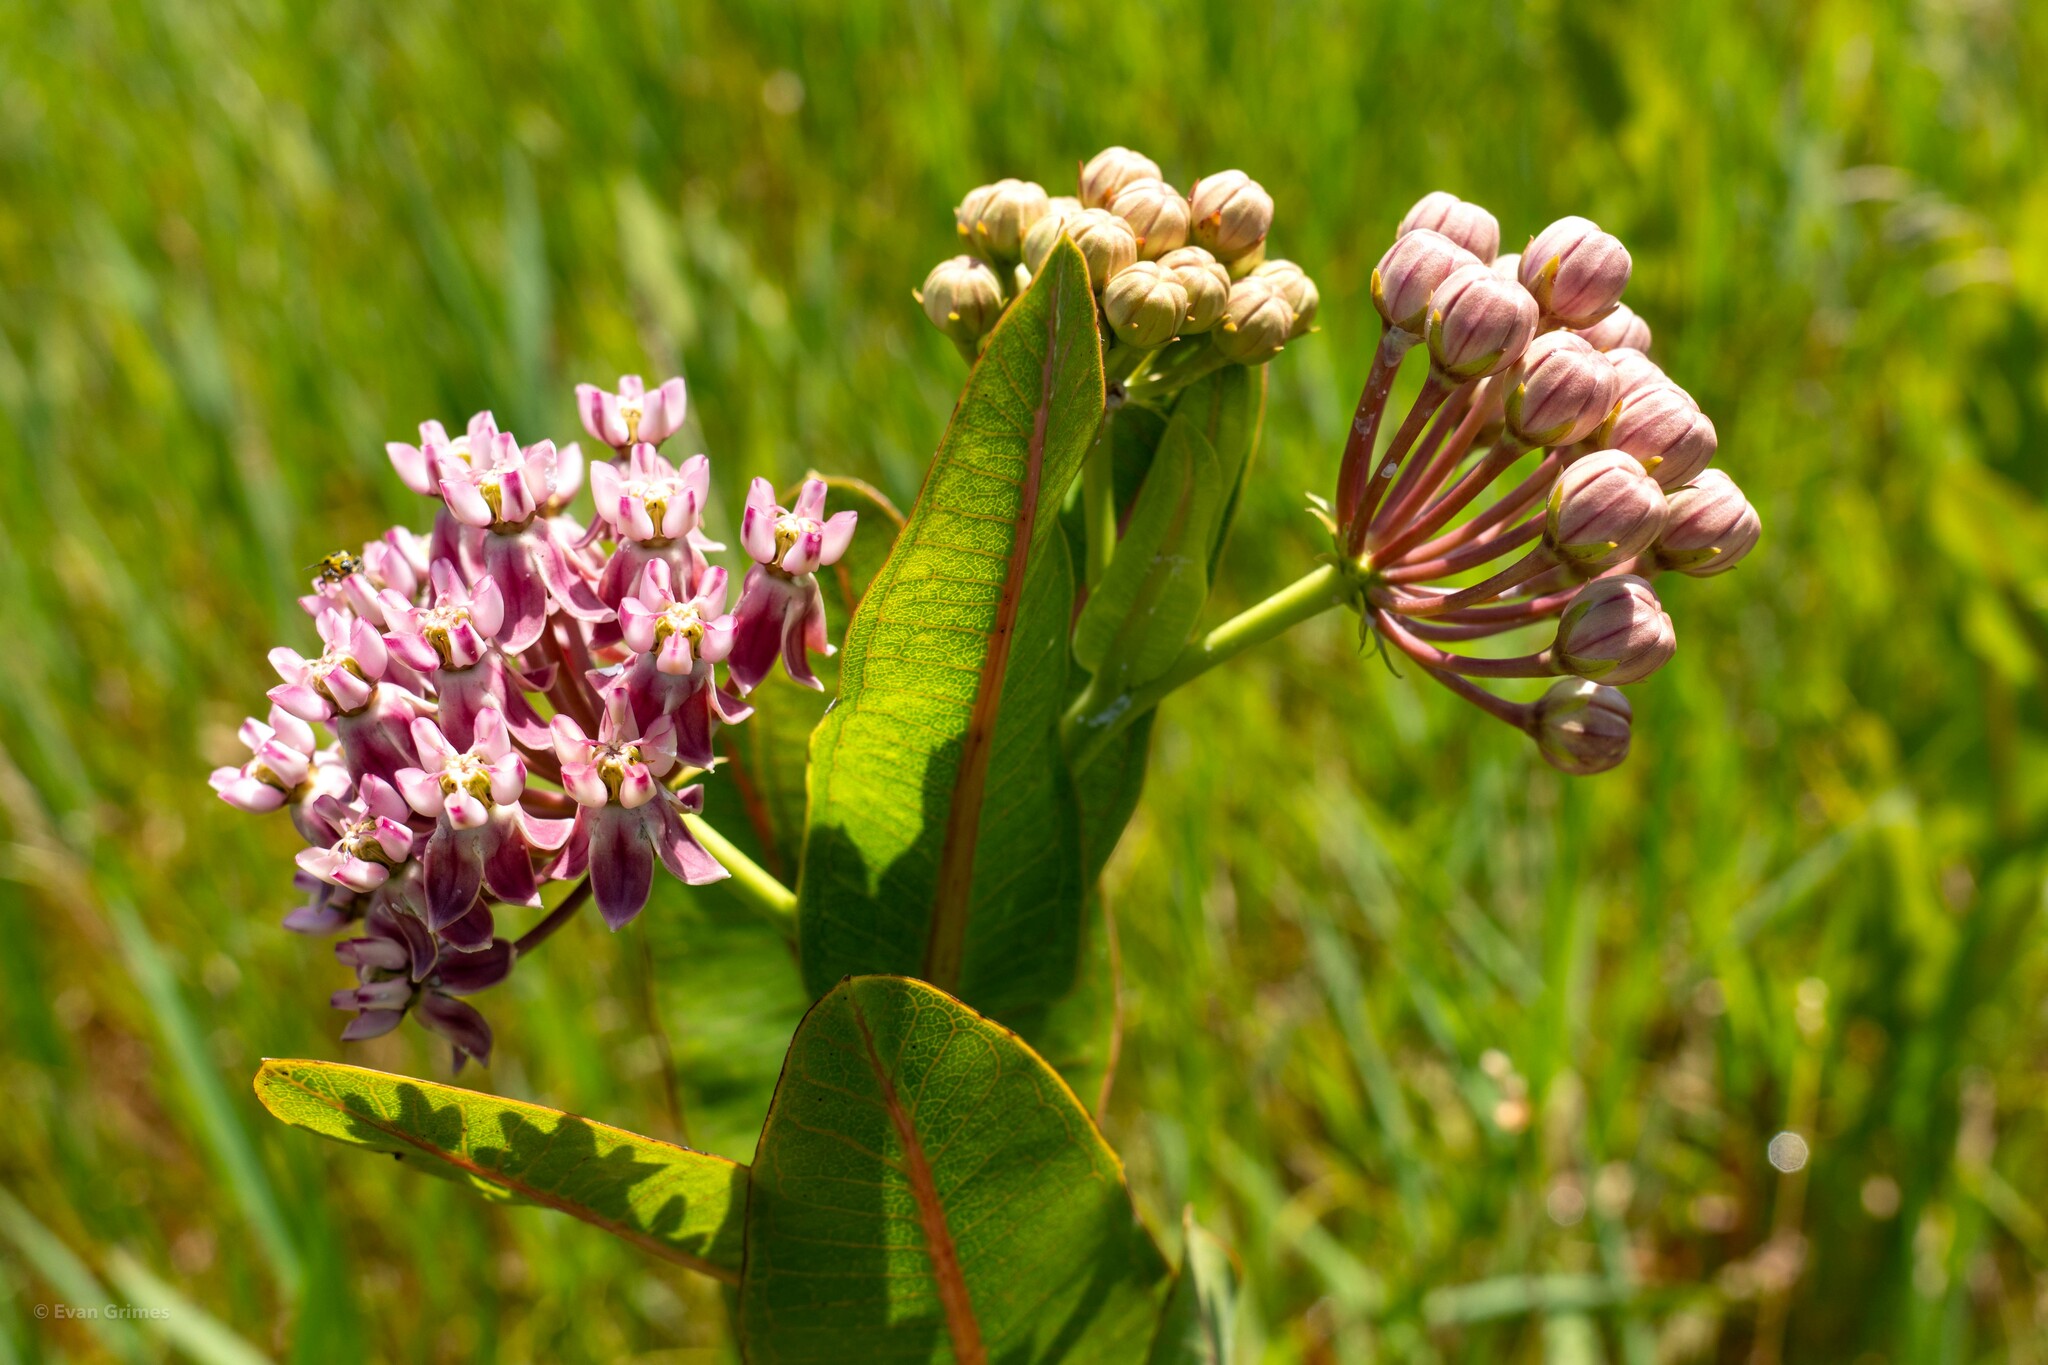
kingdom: Plantae
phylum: Tracheophyta
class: Magnoliopsida
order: Gentianales
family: Apocynaceae
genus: Asclepias
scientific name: Asclepias sullivantii
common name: Prairie milkweed
